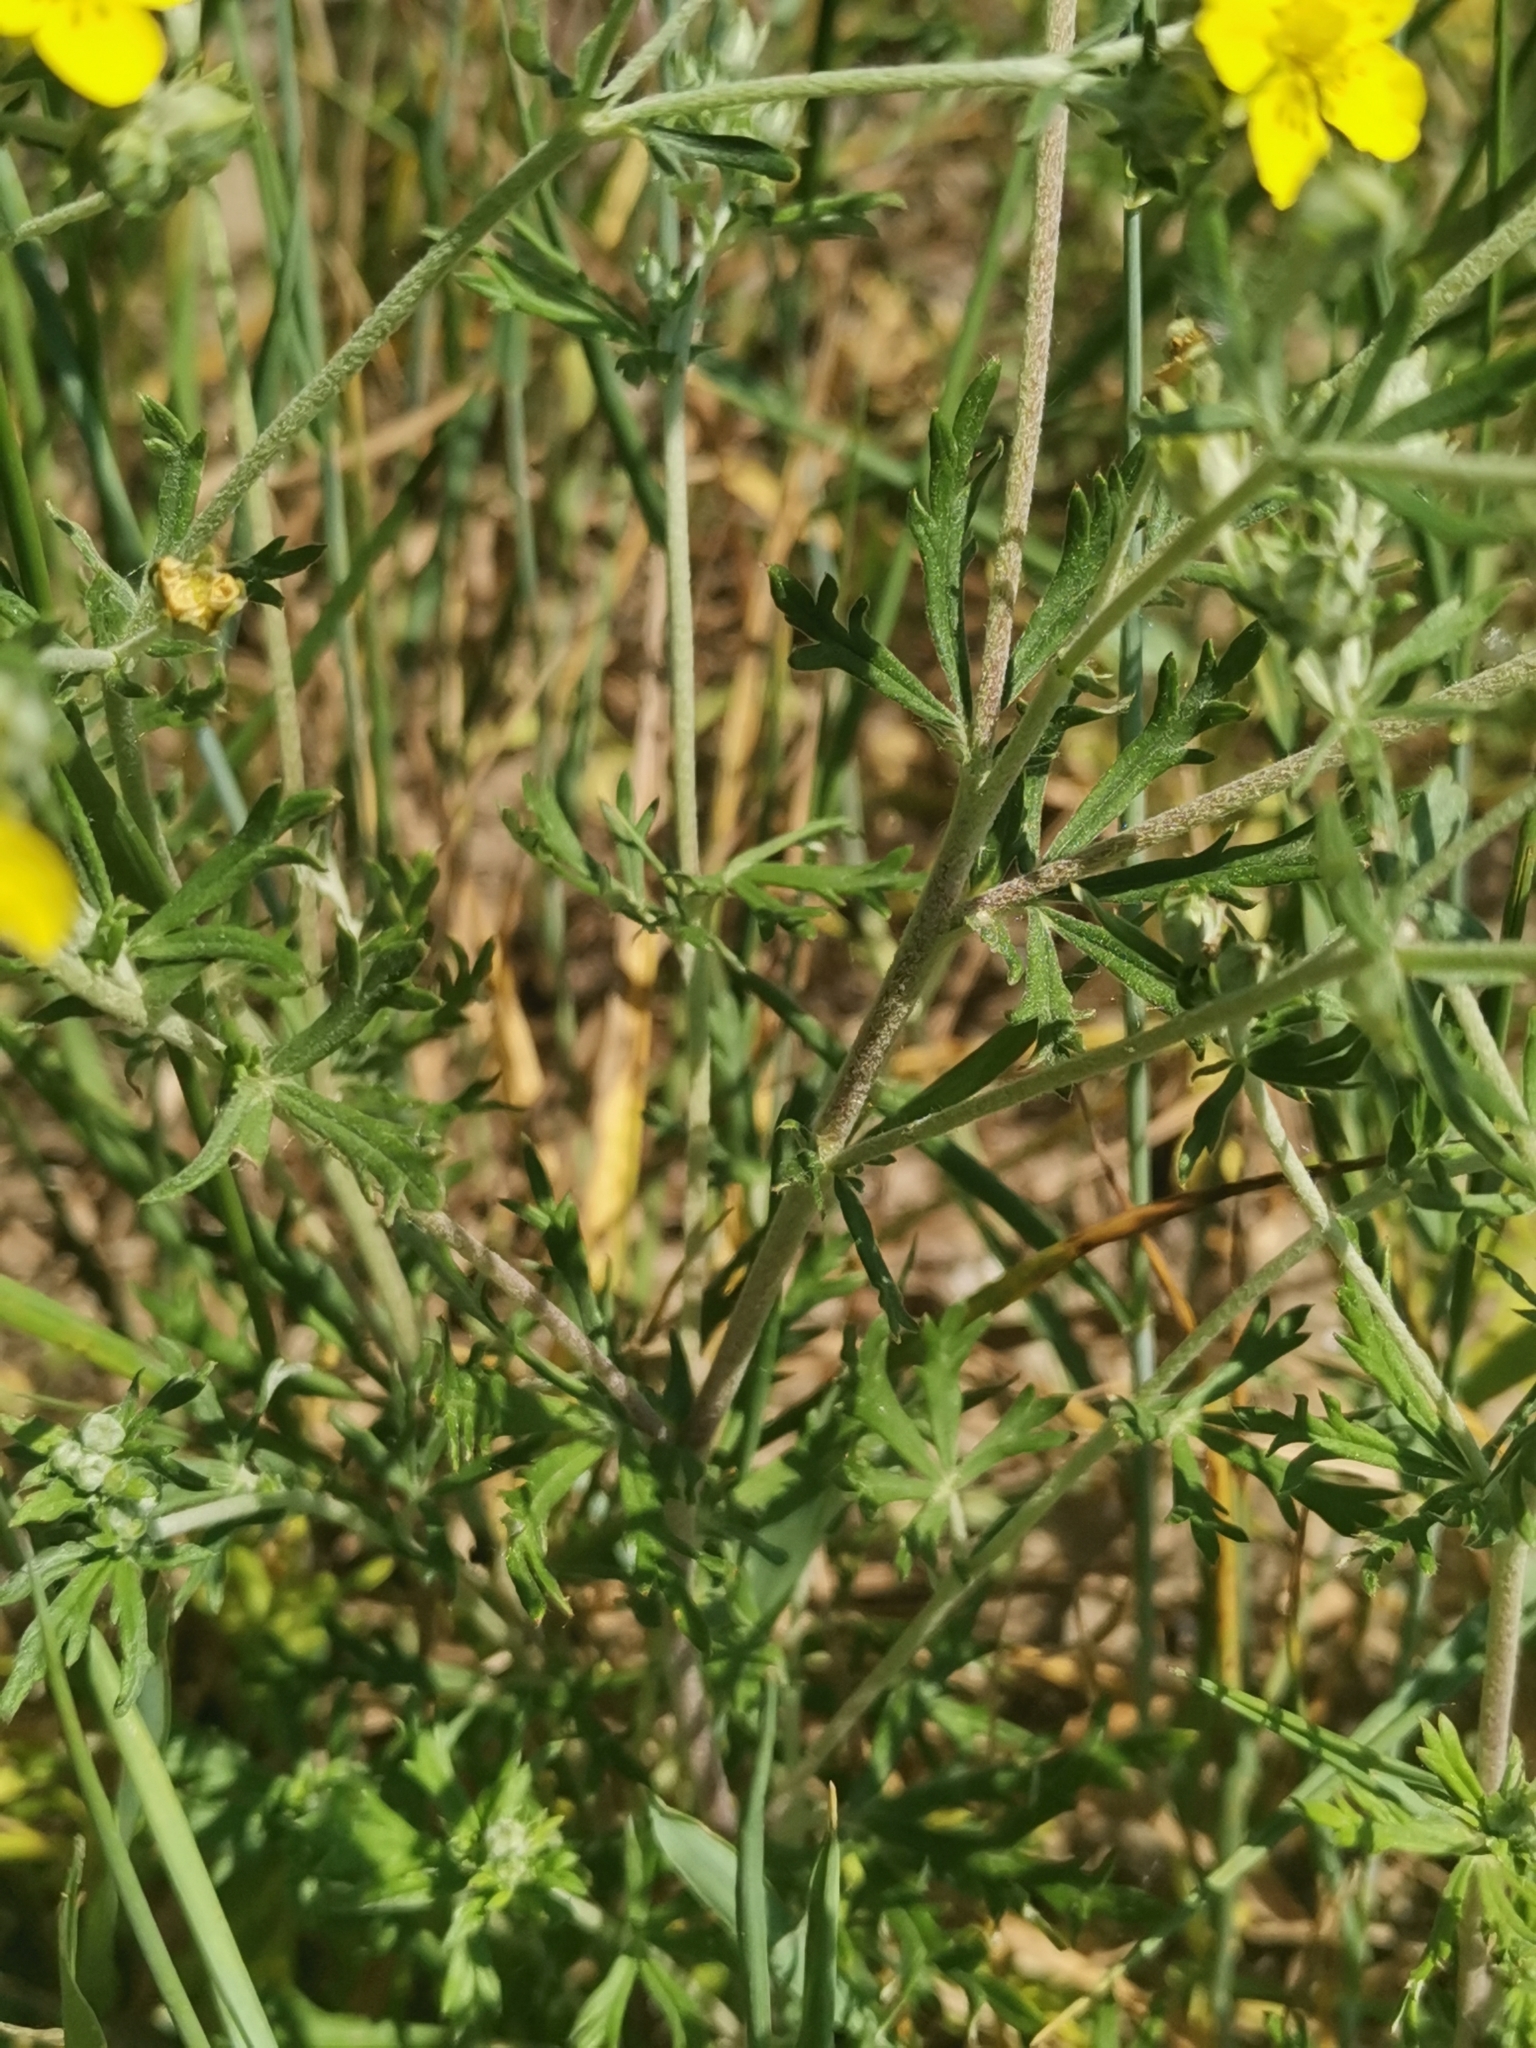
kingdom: Plantae
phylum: Tracheophyta
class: Magnoliopsida
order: Rosales
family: Rosaceae
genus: Potentilla
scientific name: Potentilla argentea
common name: Hoary cinquefoil
